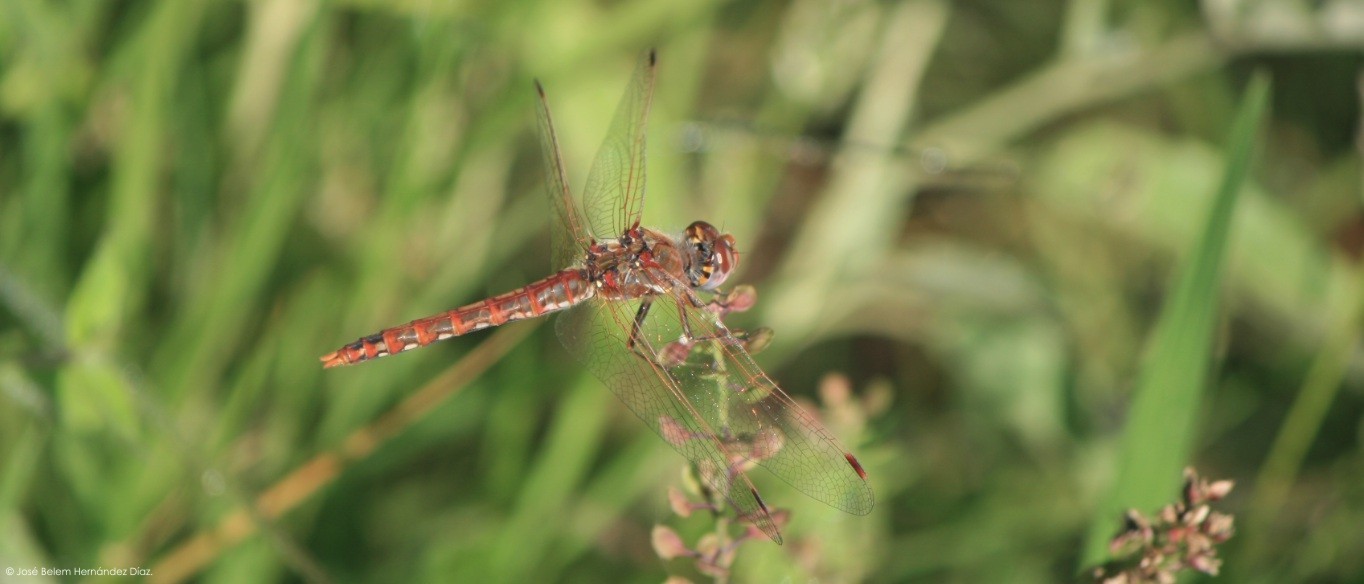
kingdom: Animalia
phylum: Arthropoda
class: Insecta
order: Odonata
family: Libellulidae
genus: Sympetrum
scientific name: Sympetrum corruptum
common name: Variegated meadowhawk
